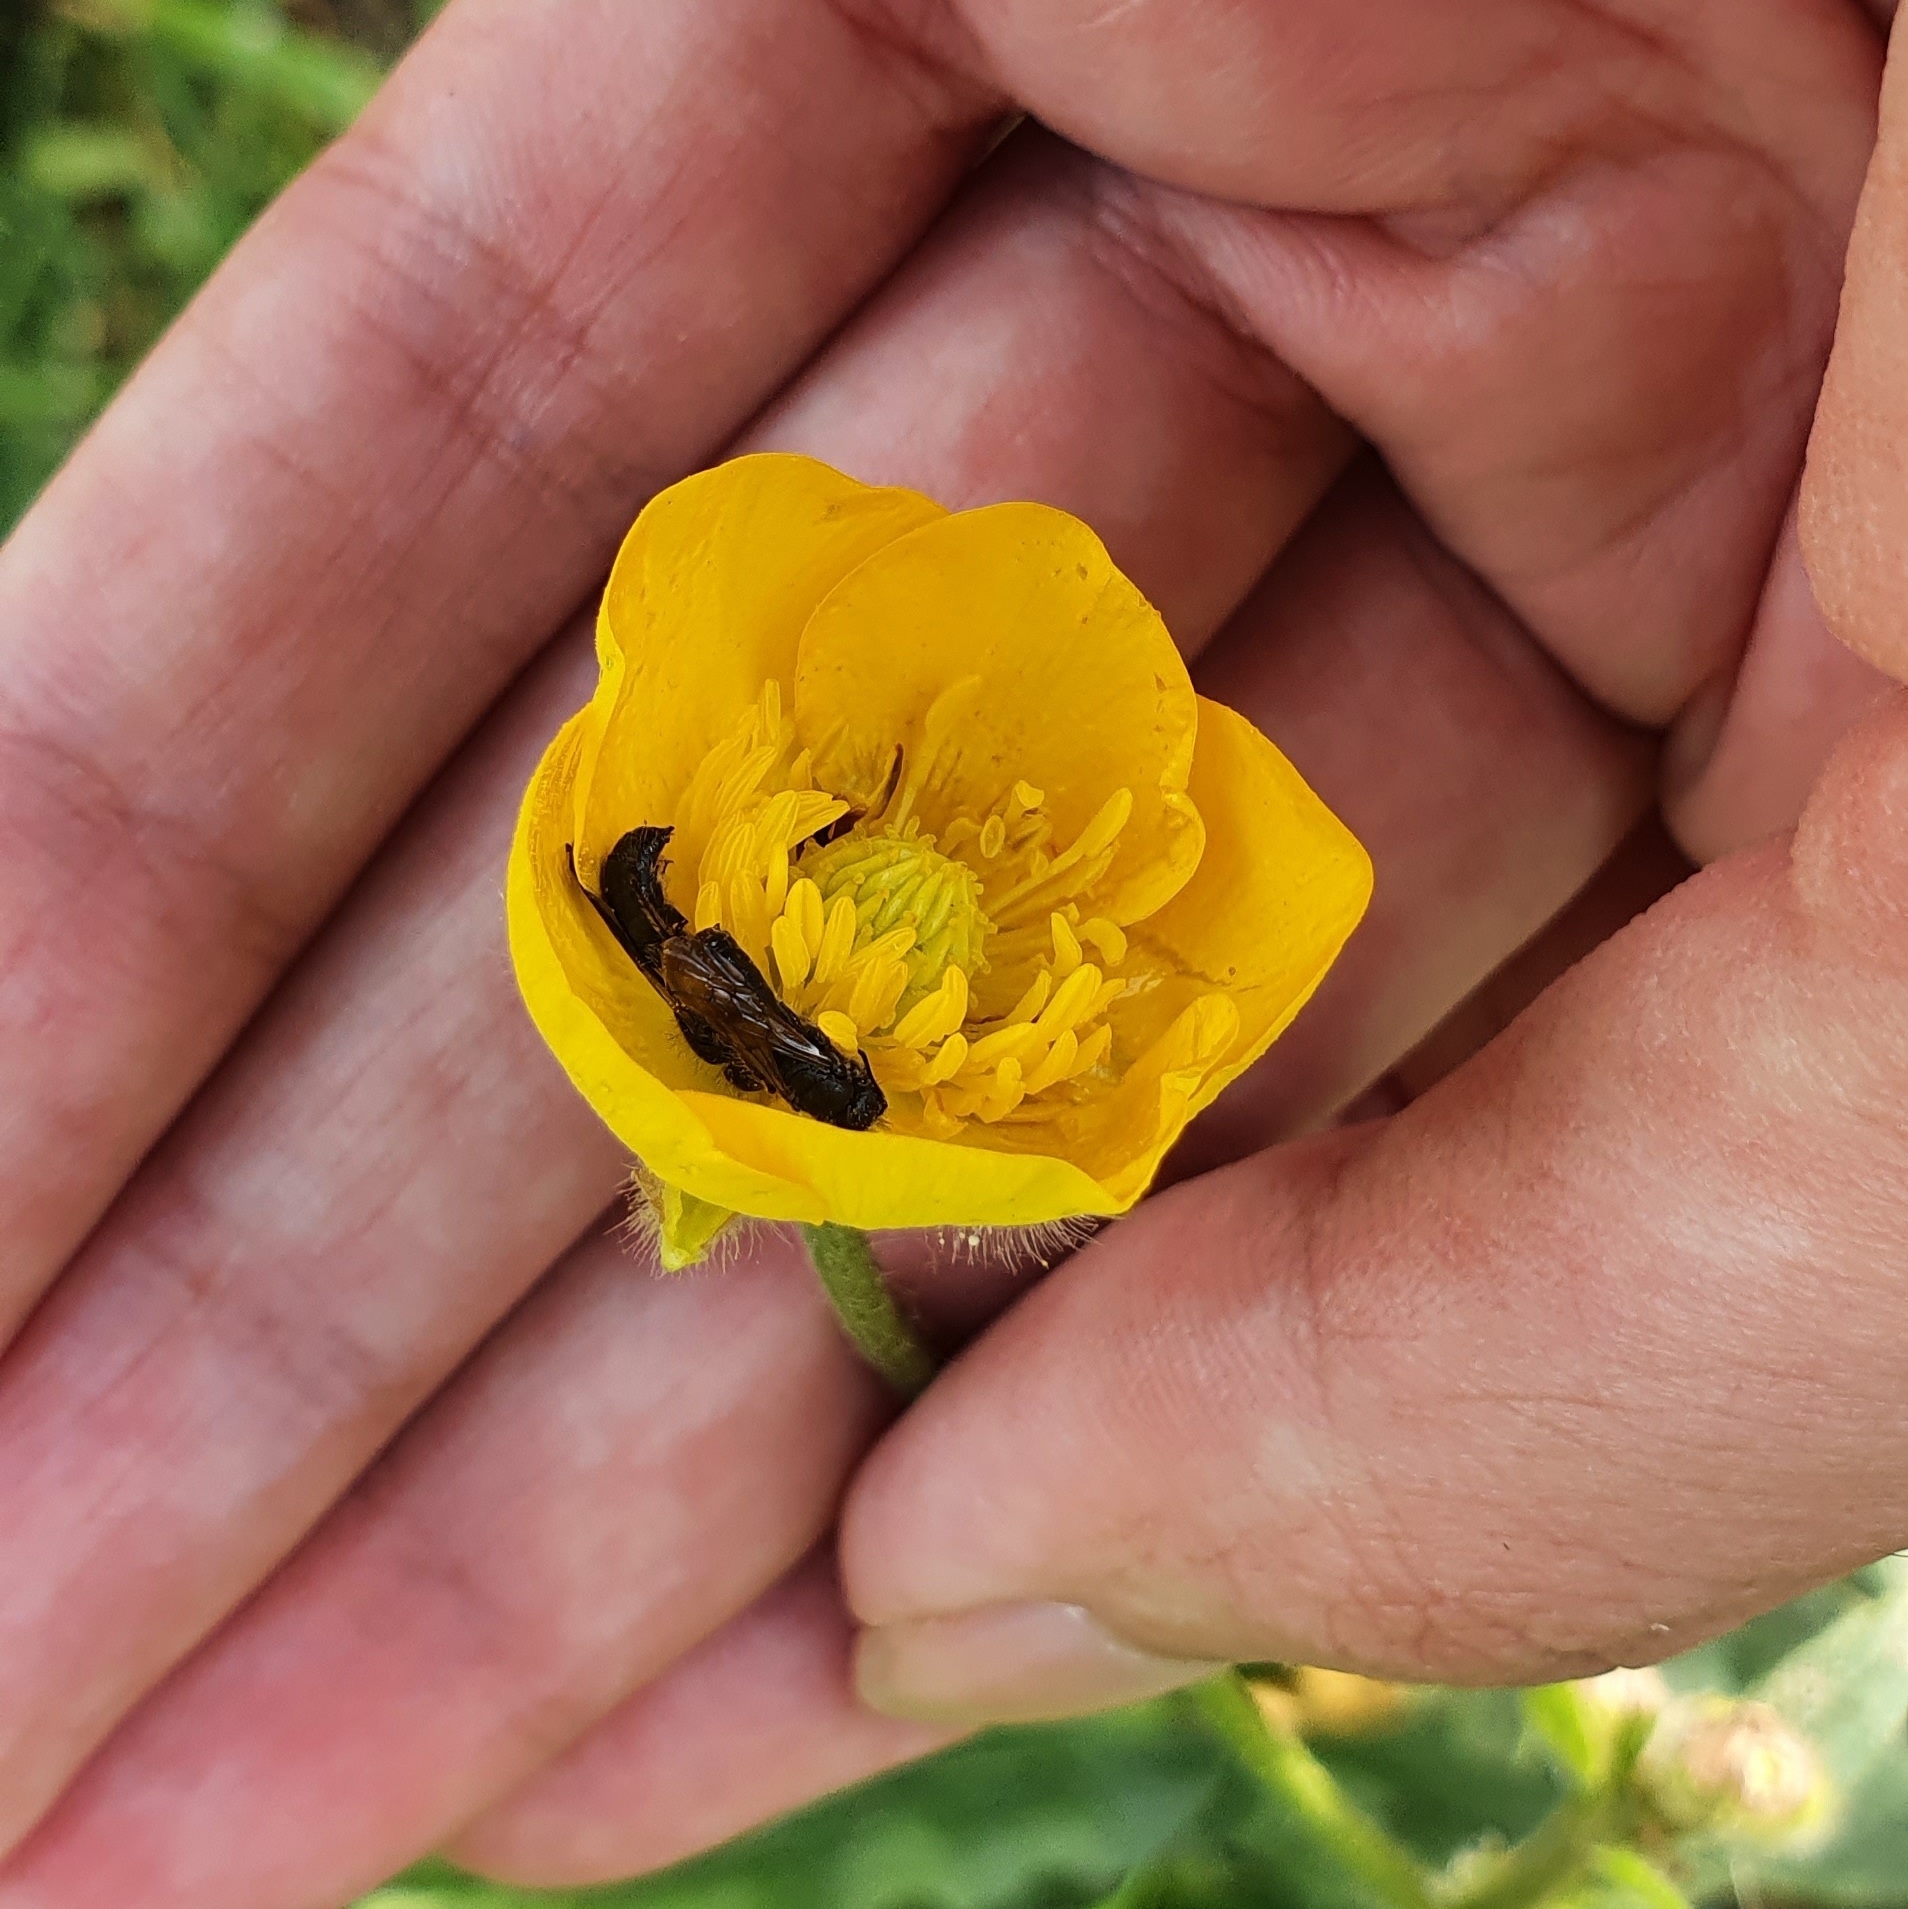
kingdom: Plantae
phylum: Tracheophyta
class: Magnoliopsida
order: Ranunculales
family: Ranunculaceae
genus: Ranunculus
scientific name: Ranunculus macrophyllus
